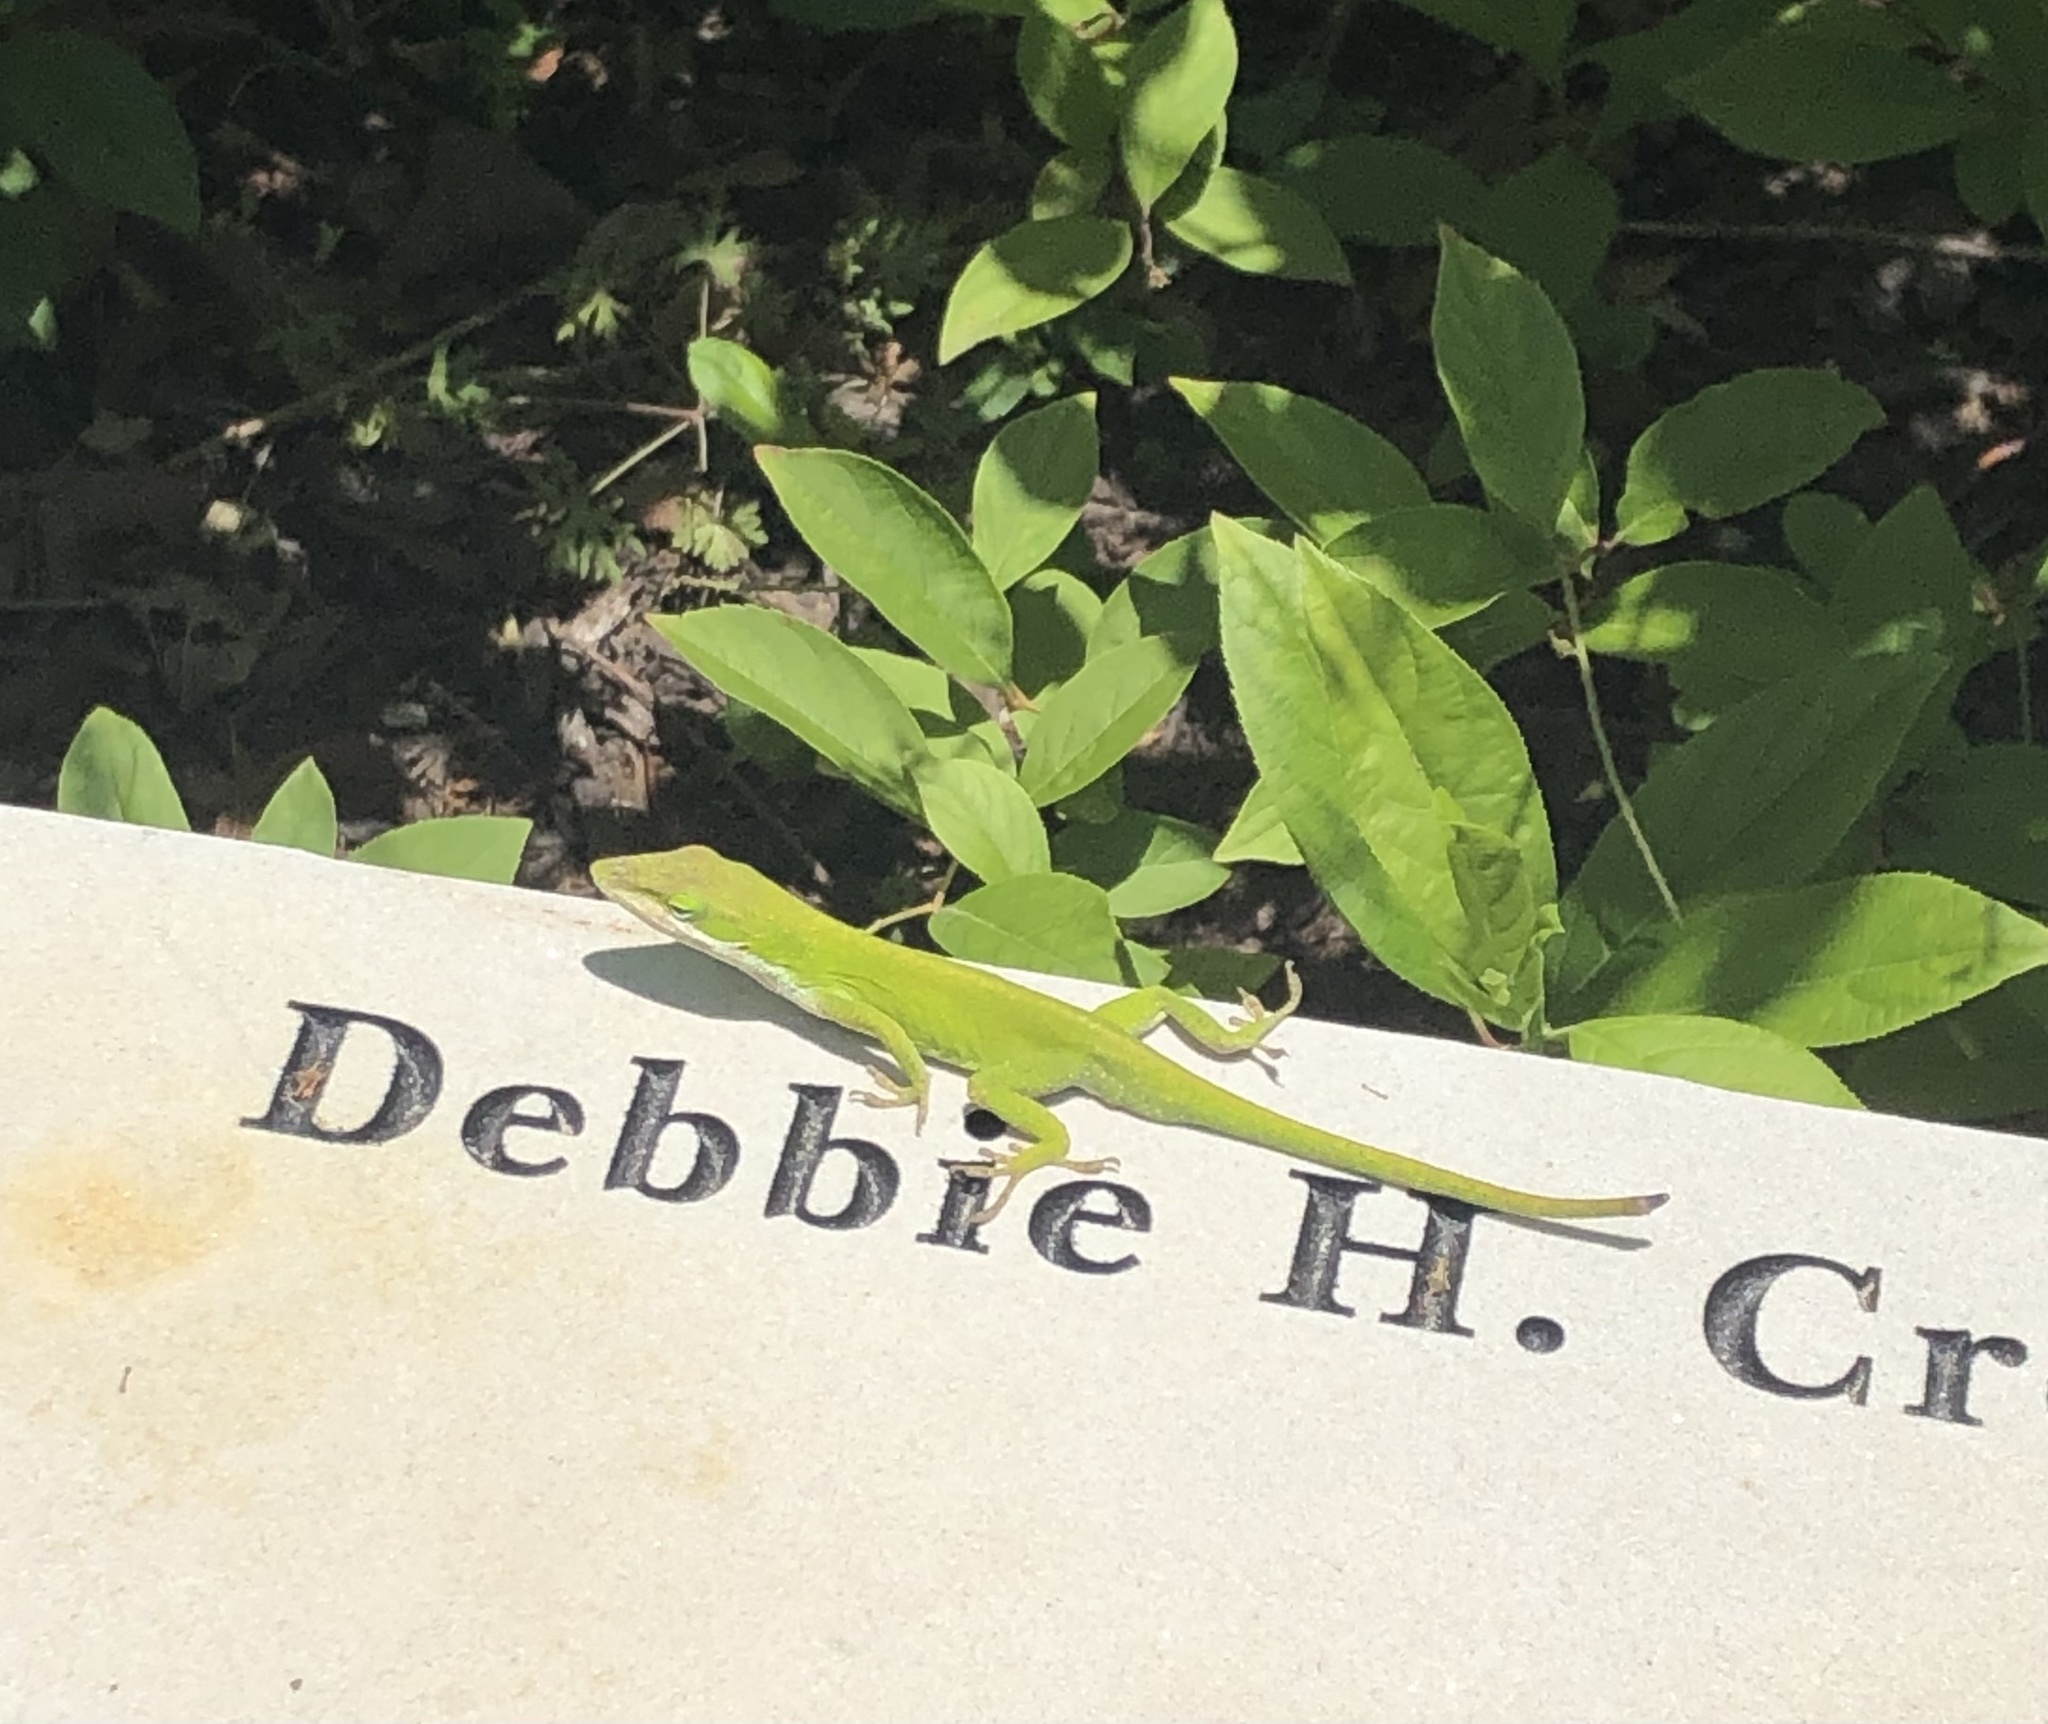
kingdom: Animalia
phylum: Chordata
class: Squamata
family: Dactyloidae
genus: Anolis
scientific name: Anolis carolinensis
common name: Green anole
